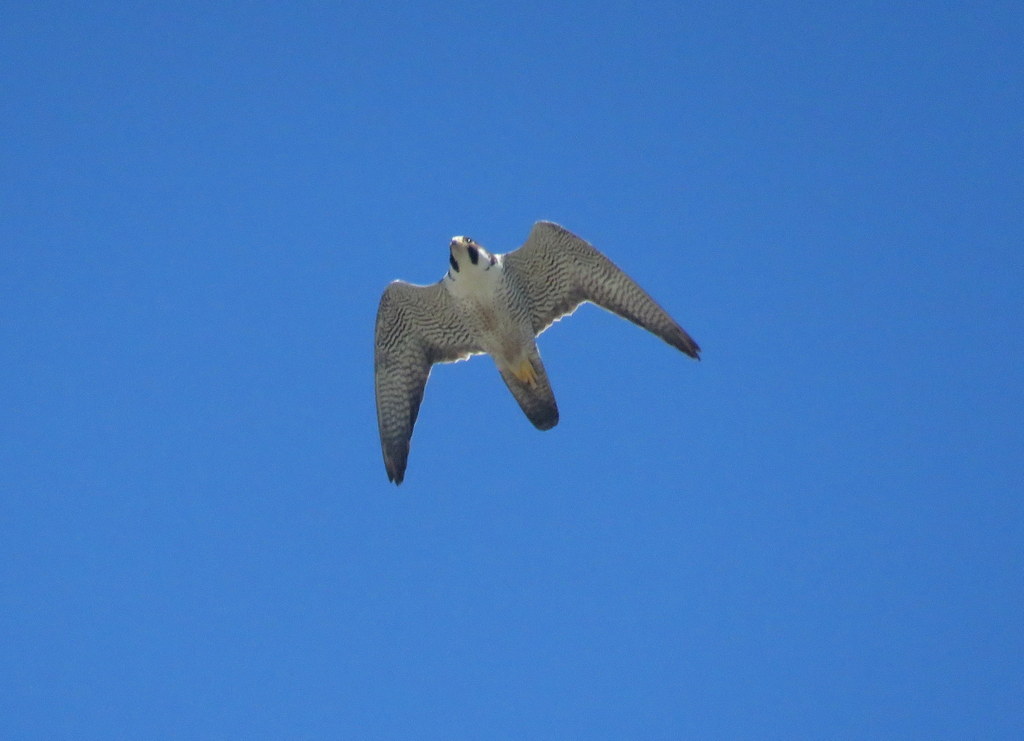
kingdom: Animalia
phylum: Chordata
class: Aves
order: Falconiformes
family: Falconidae
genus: Falco
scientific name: Falco peregrinus
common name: Peregrine falcon
